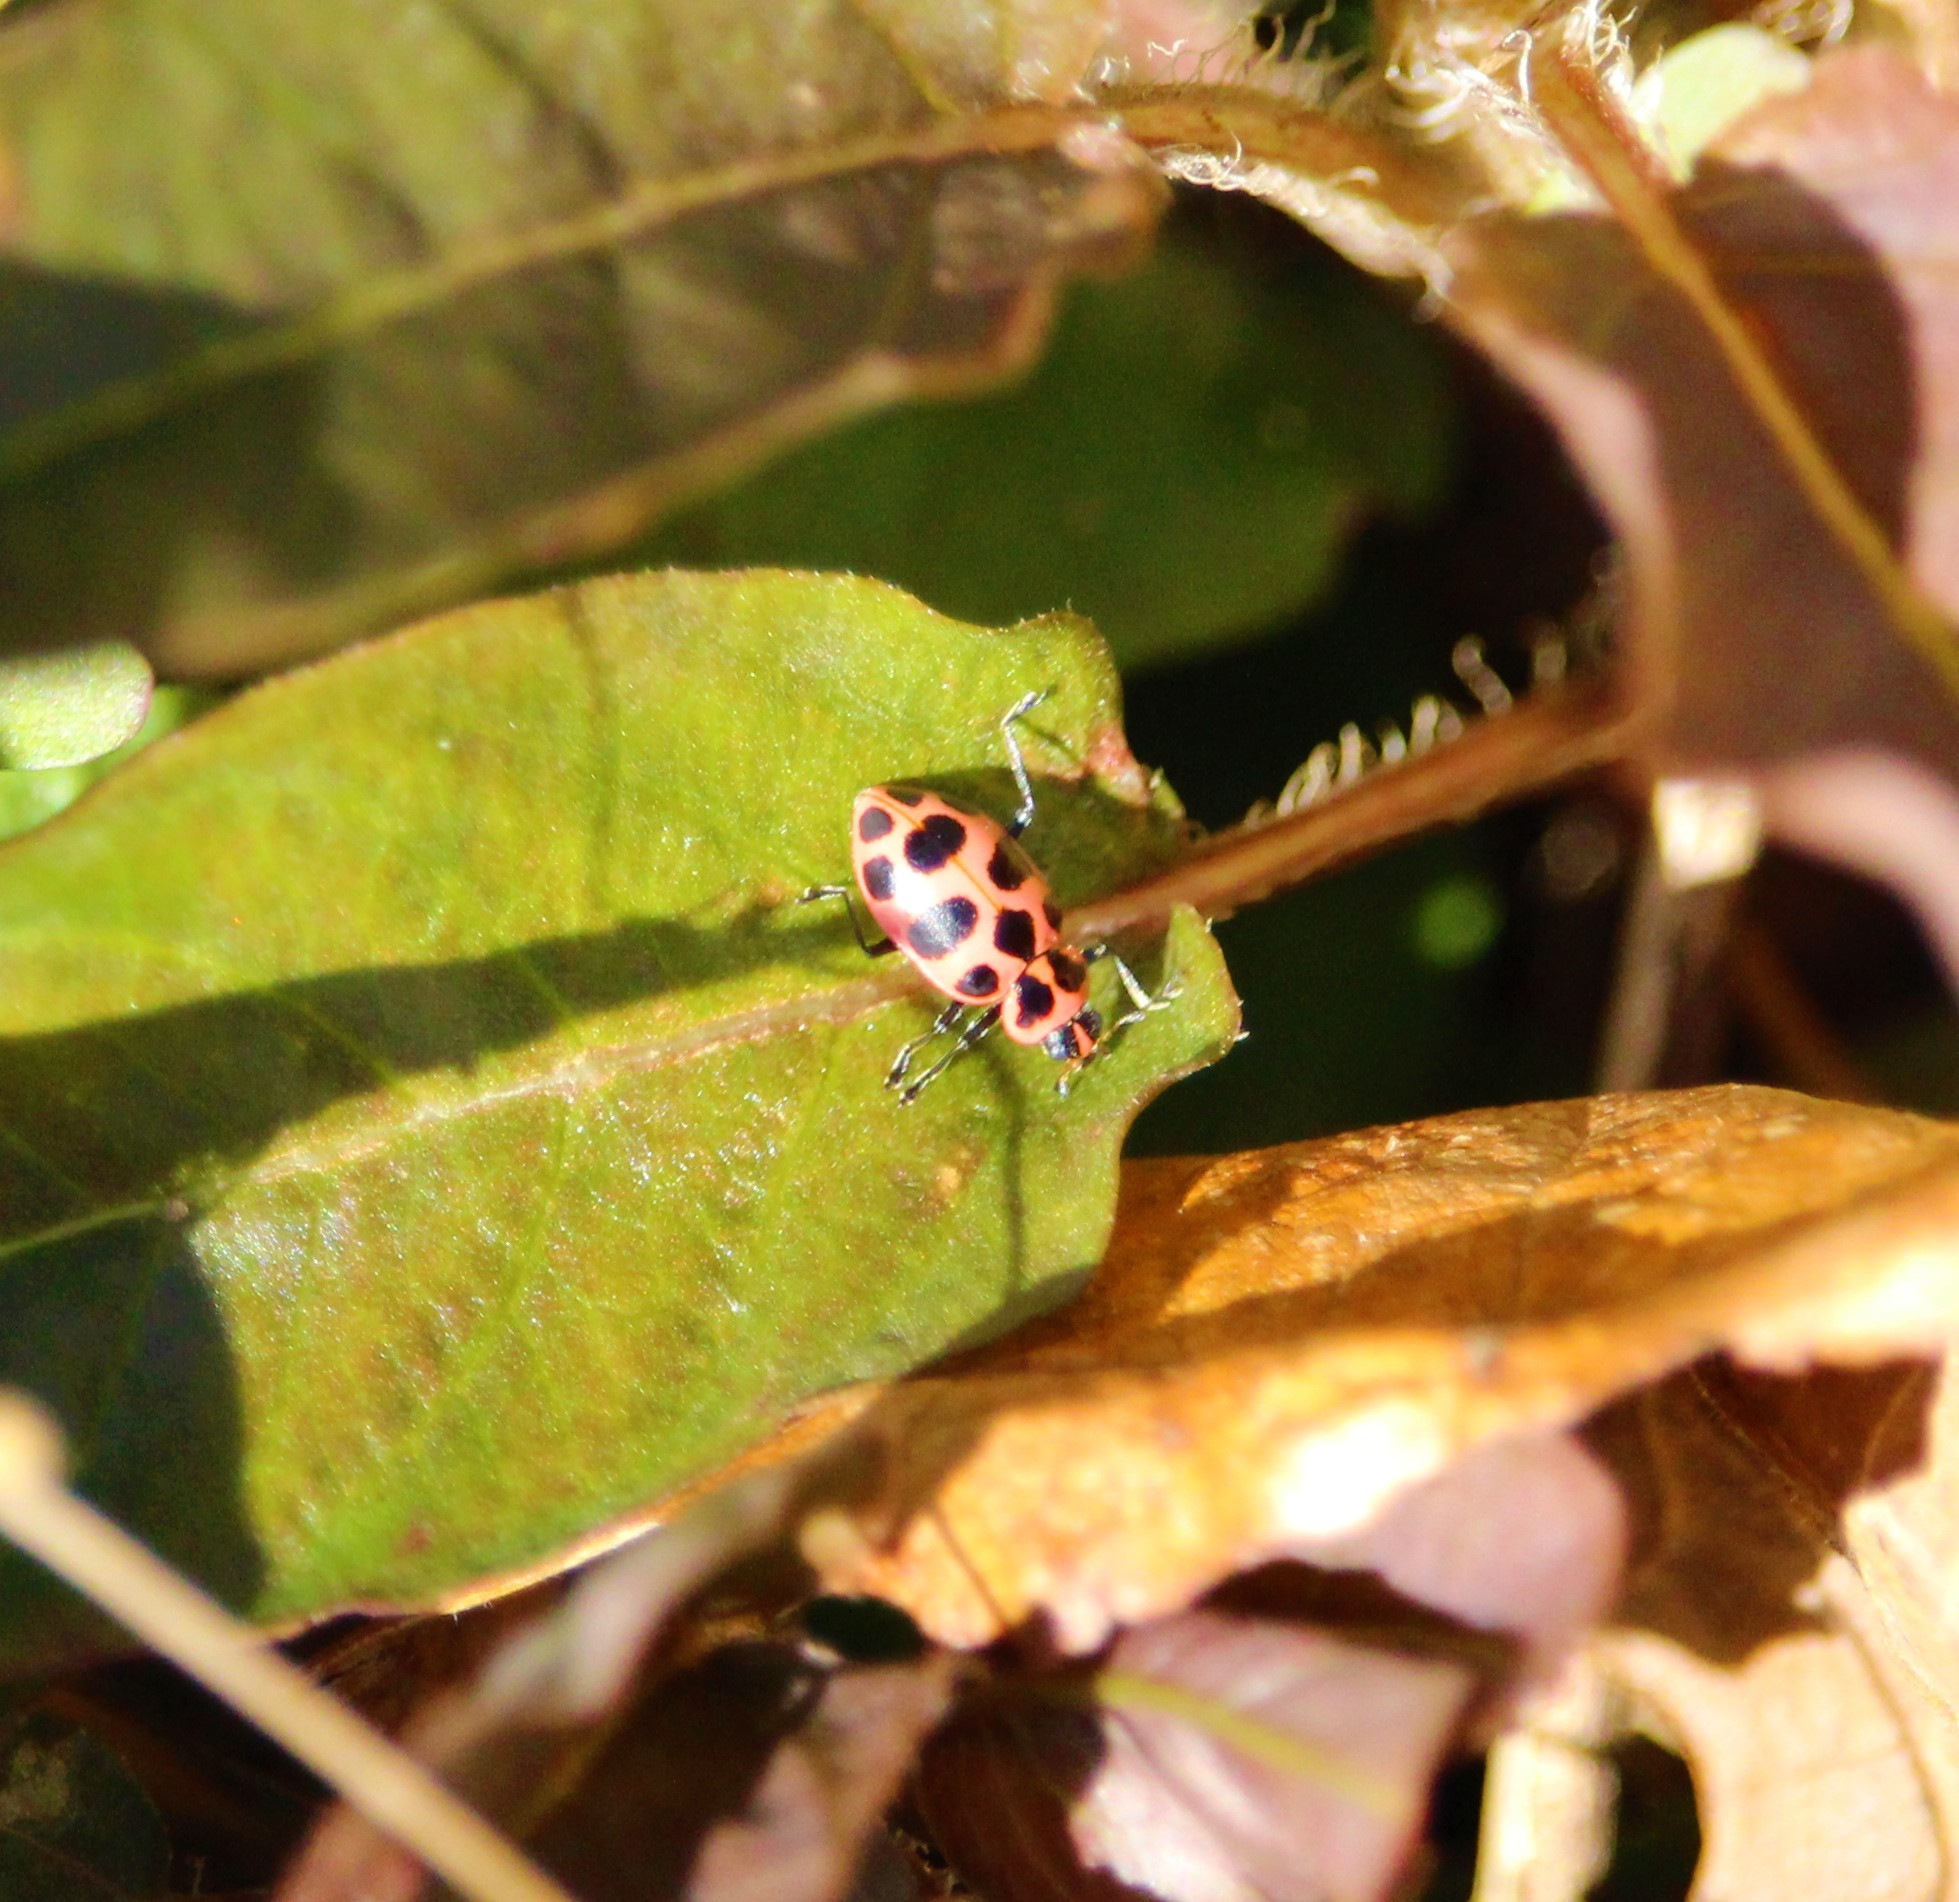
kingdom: Animalia
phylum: Arthropoda
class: Insecta
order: Coleoptera
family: Coccinellidae
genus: Coleomegilla
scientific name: Coleomegilla maculata
